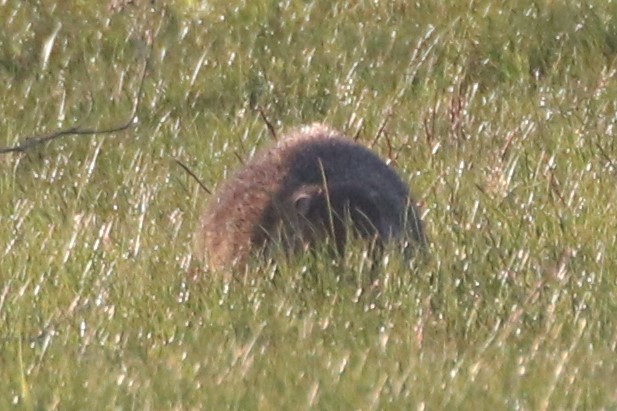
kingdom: Animalia
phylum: Chordata
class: Mammalia
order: Rodentia
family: Sciuridae
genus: Marmota
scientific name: Marmota monax
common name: Groundhog
